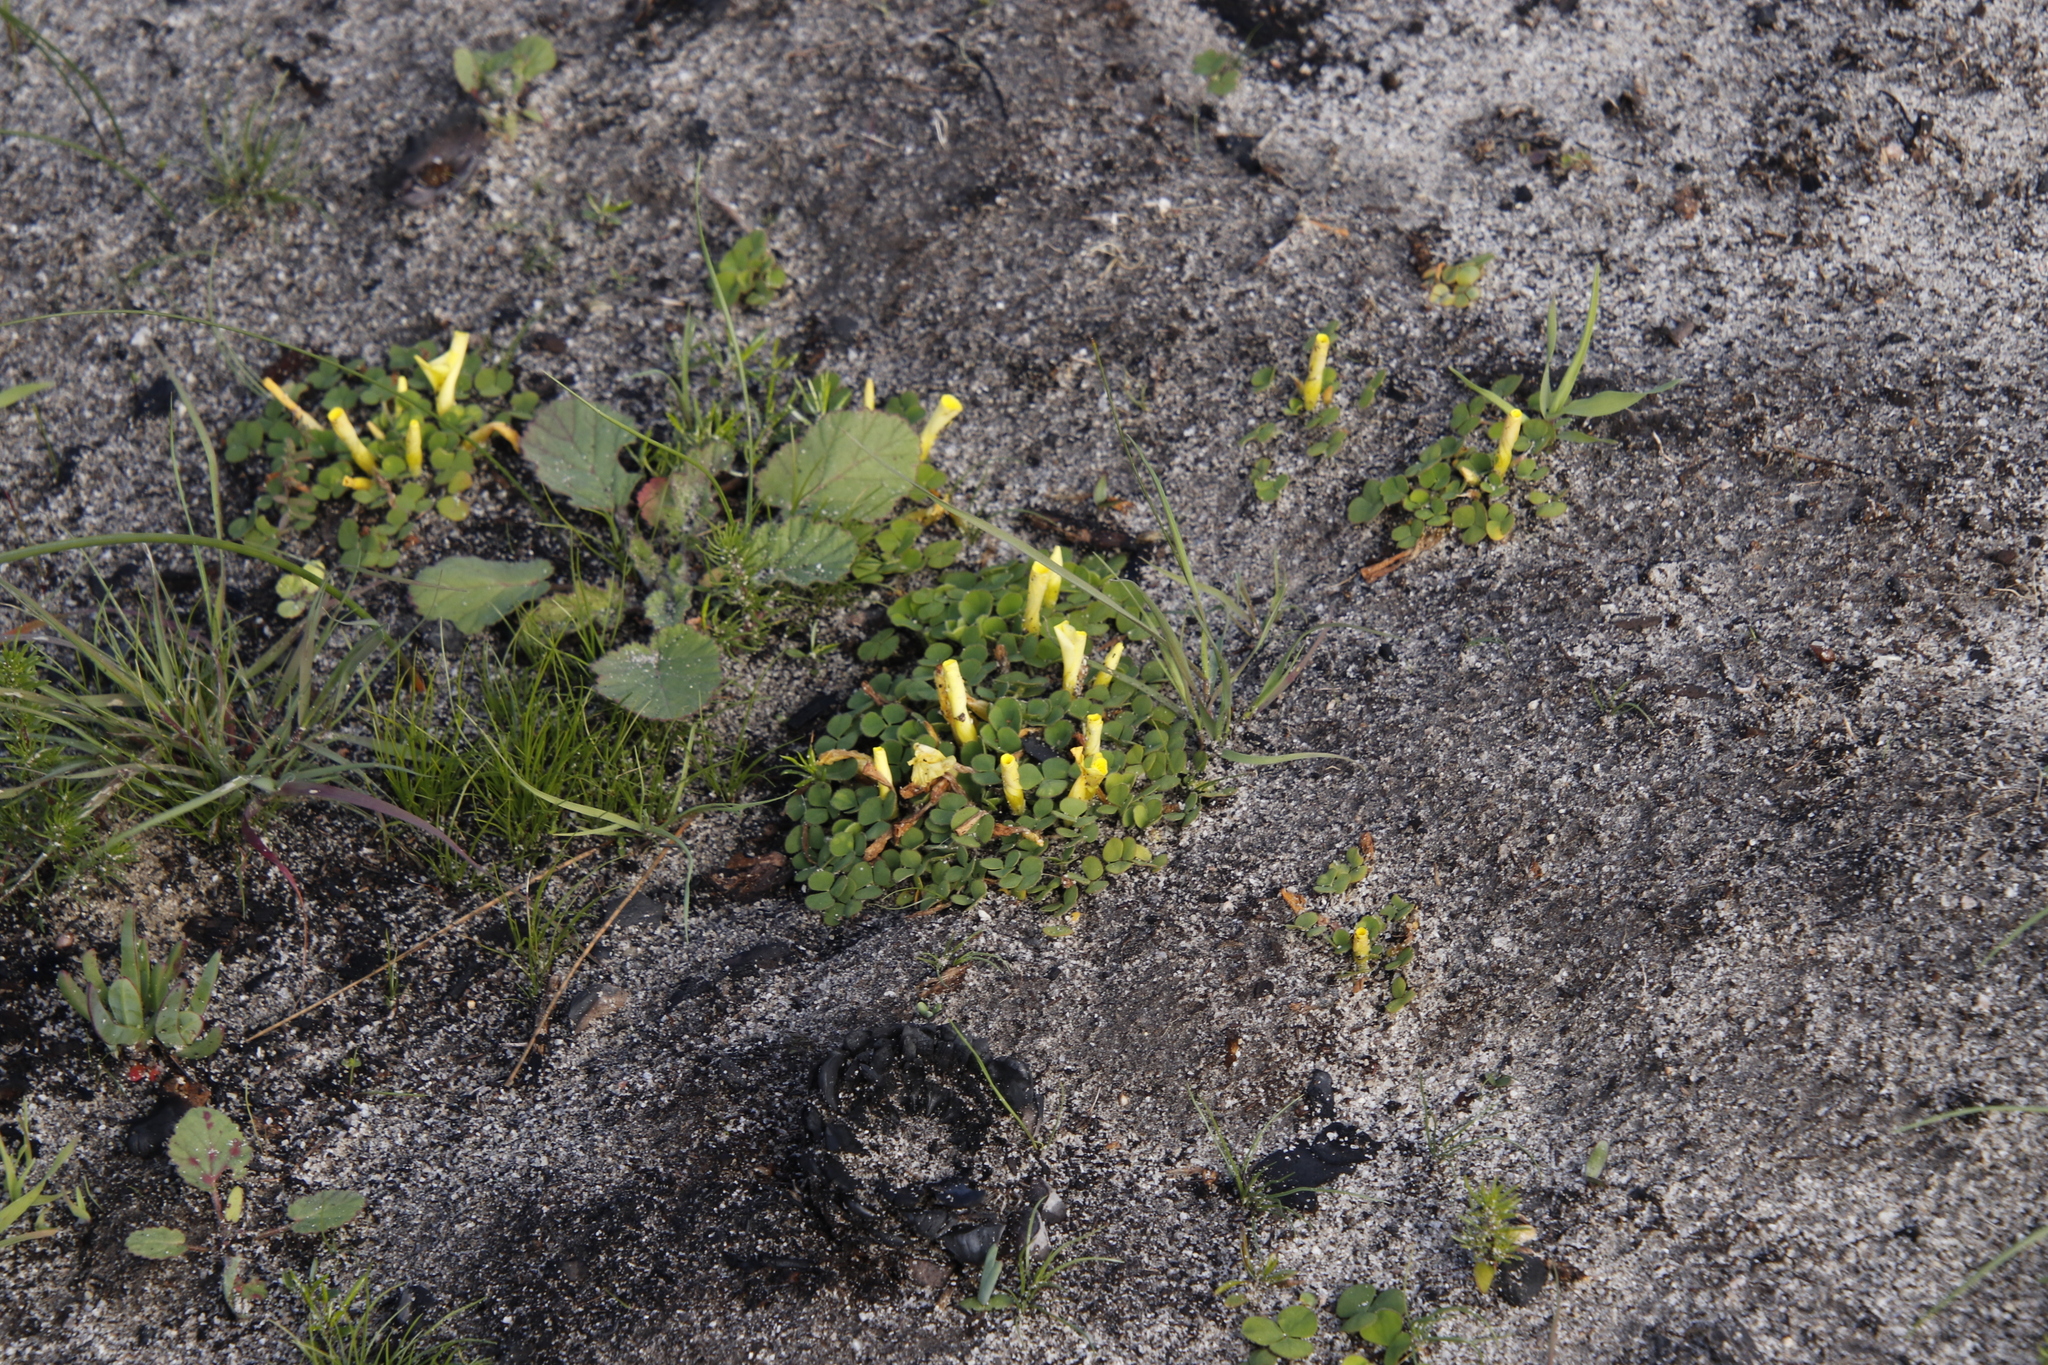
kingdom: Plantae
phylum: Tracheophyta
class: Magnoliopsida
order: Oxalidales
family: Oxalidaceae
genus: Oxalis
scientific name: Oxalis luteola
